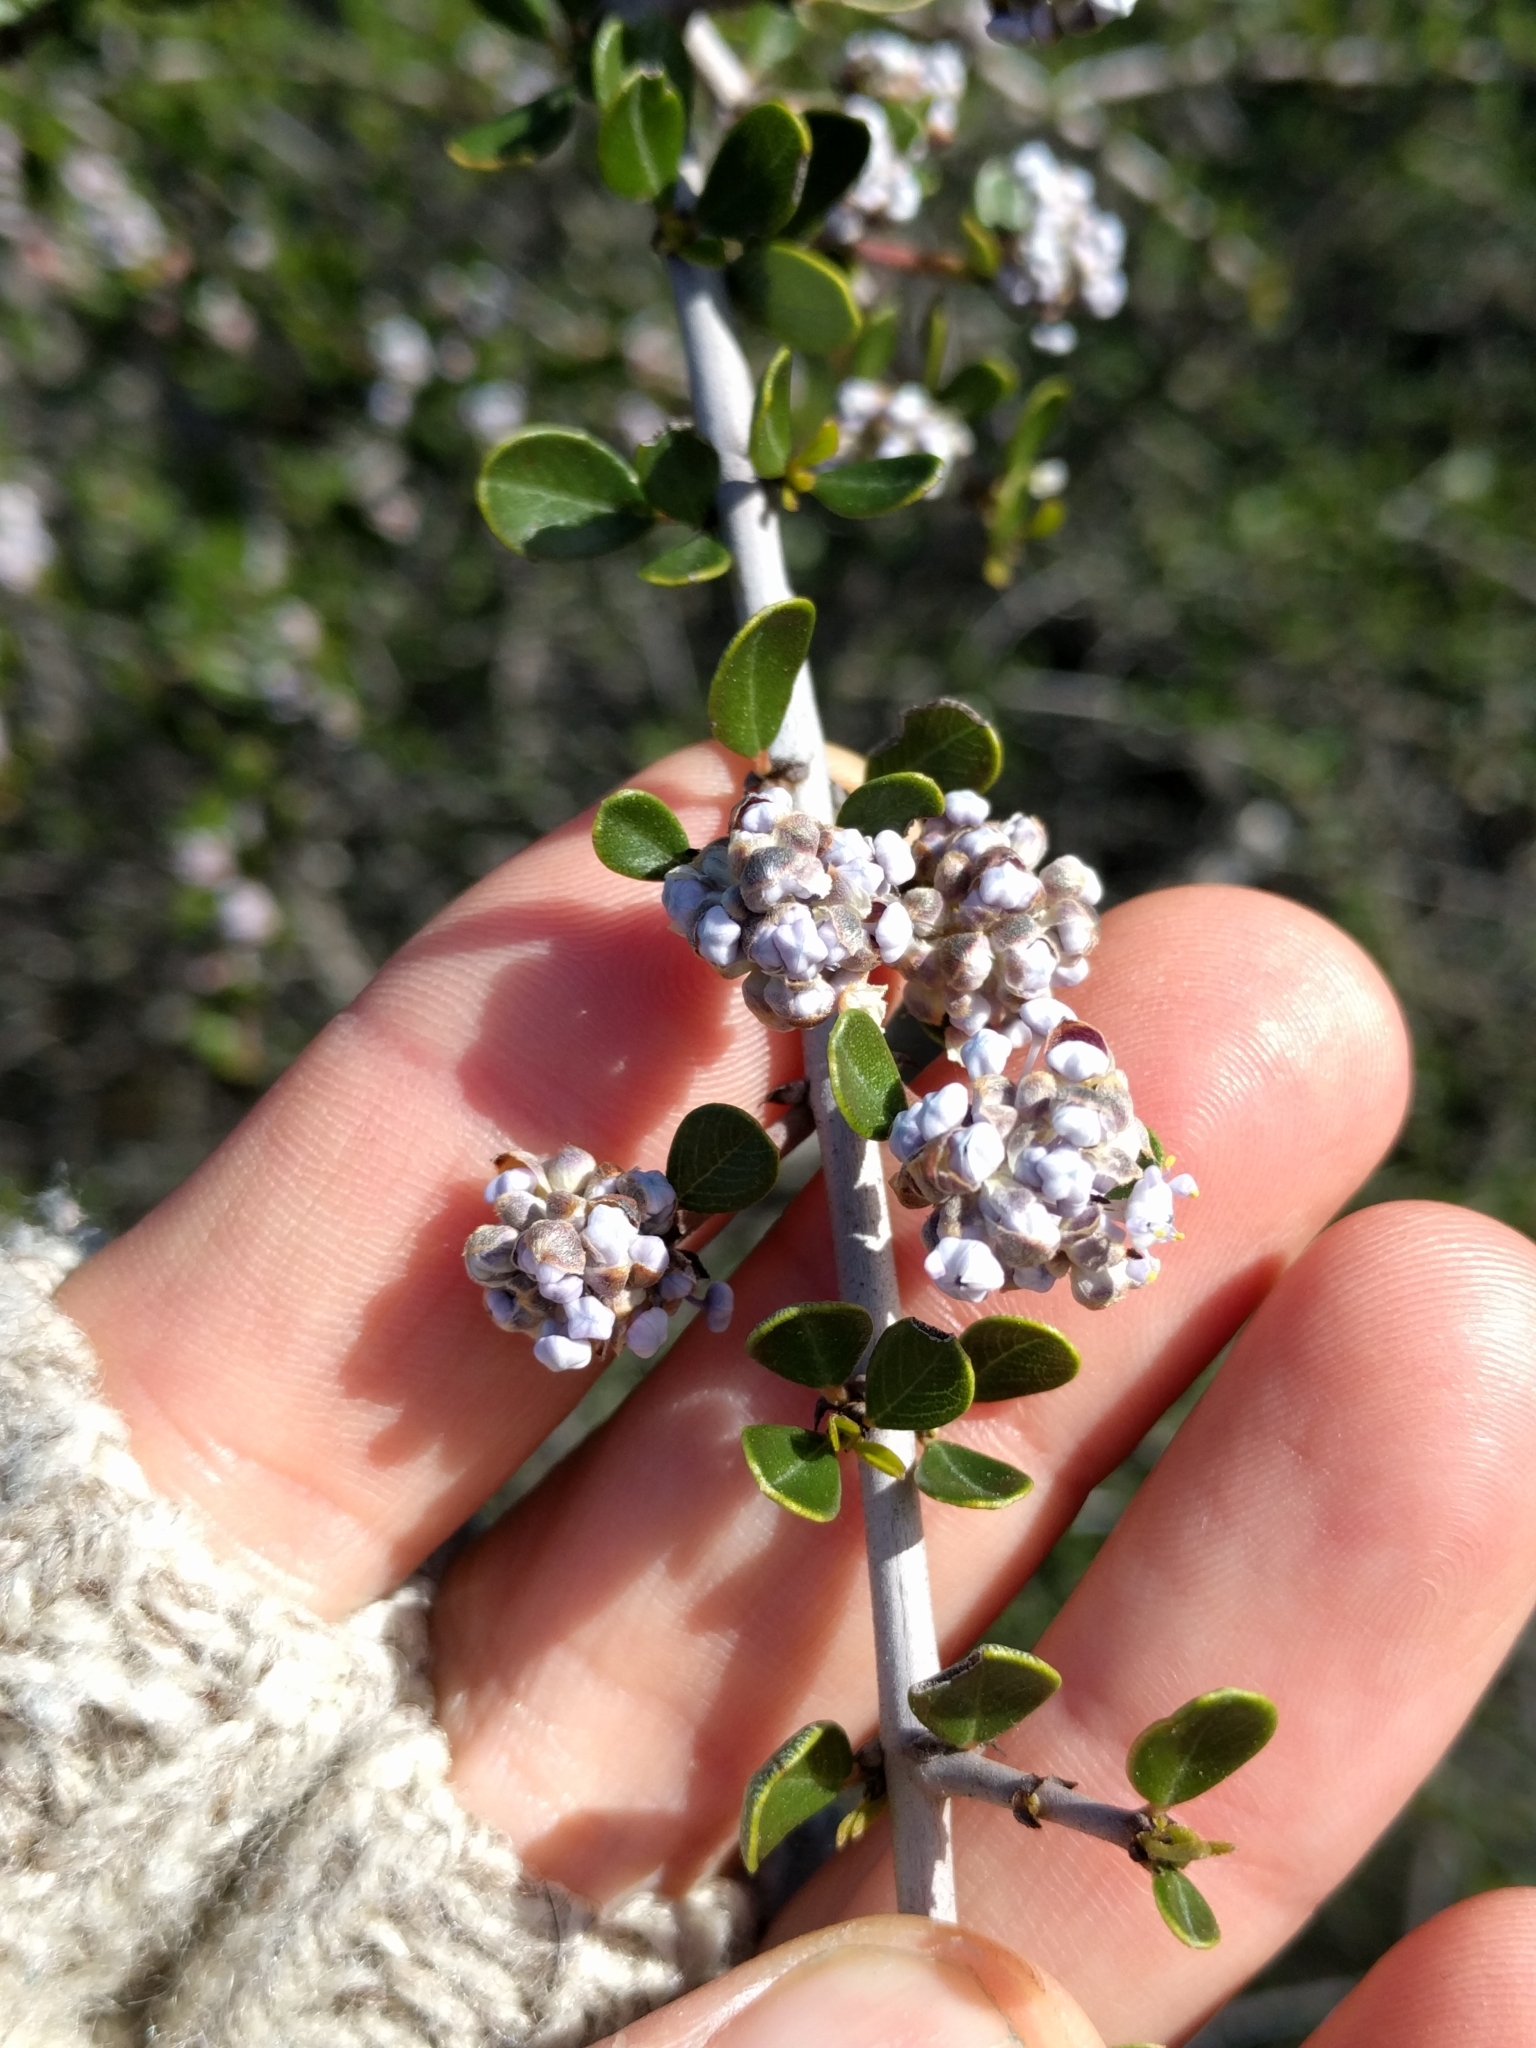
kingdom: Plantae
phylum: Tracheophyta
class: Magnoliopsida
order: Rosales
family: Rhamnaceae
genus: Ceanothus
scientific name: Ceanothus cuneatus
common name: Cuneate ceanothus
